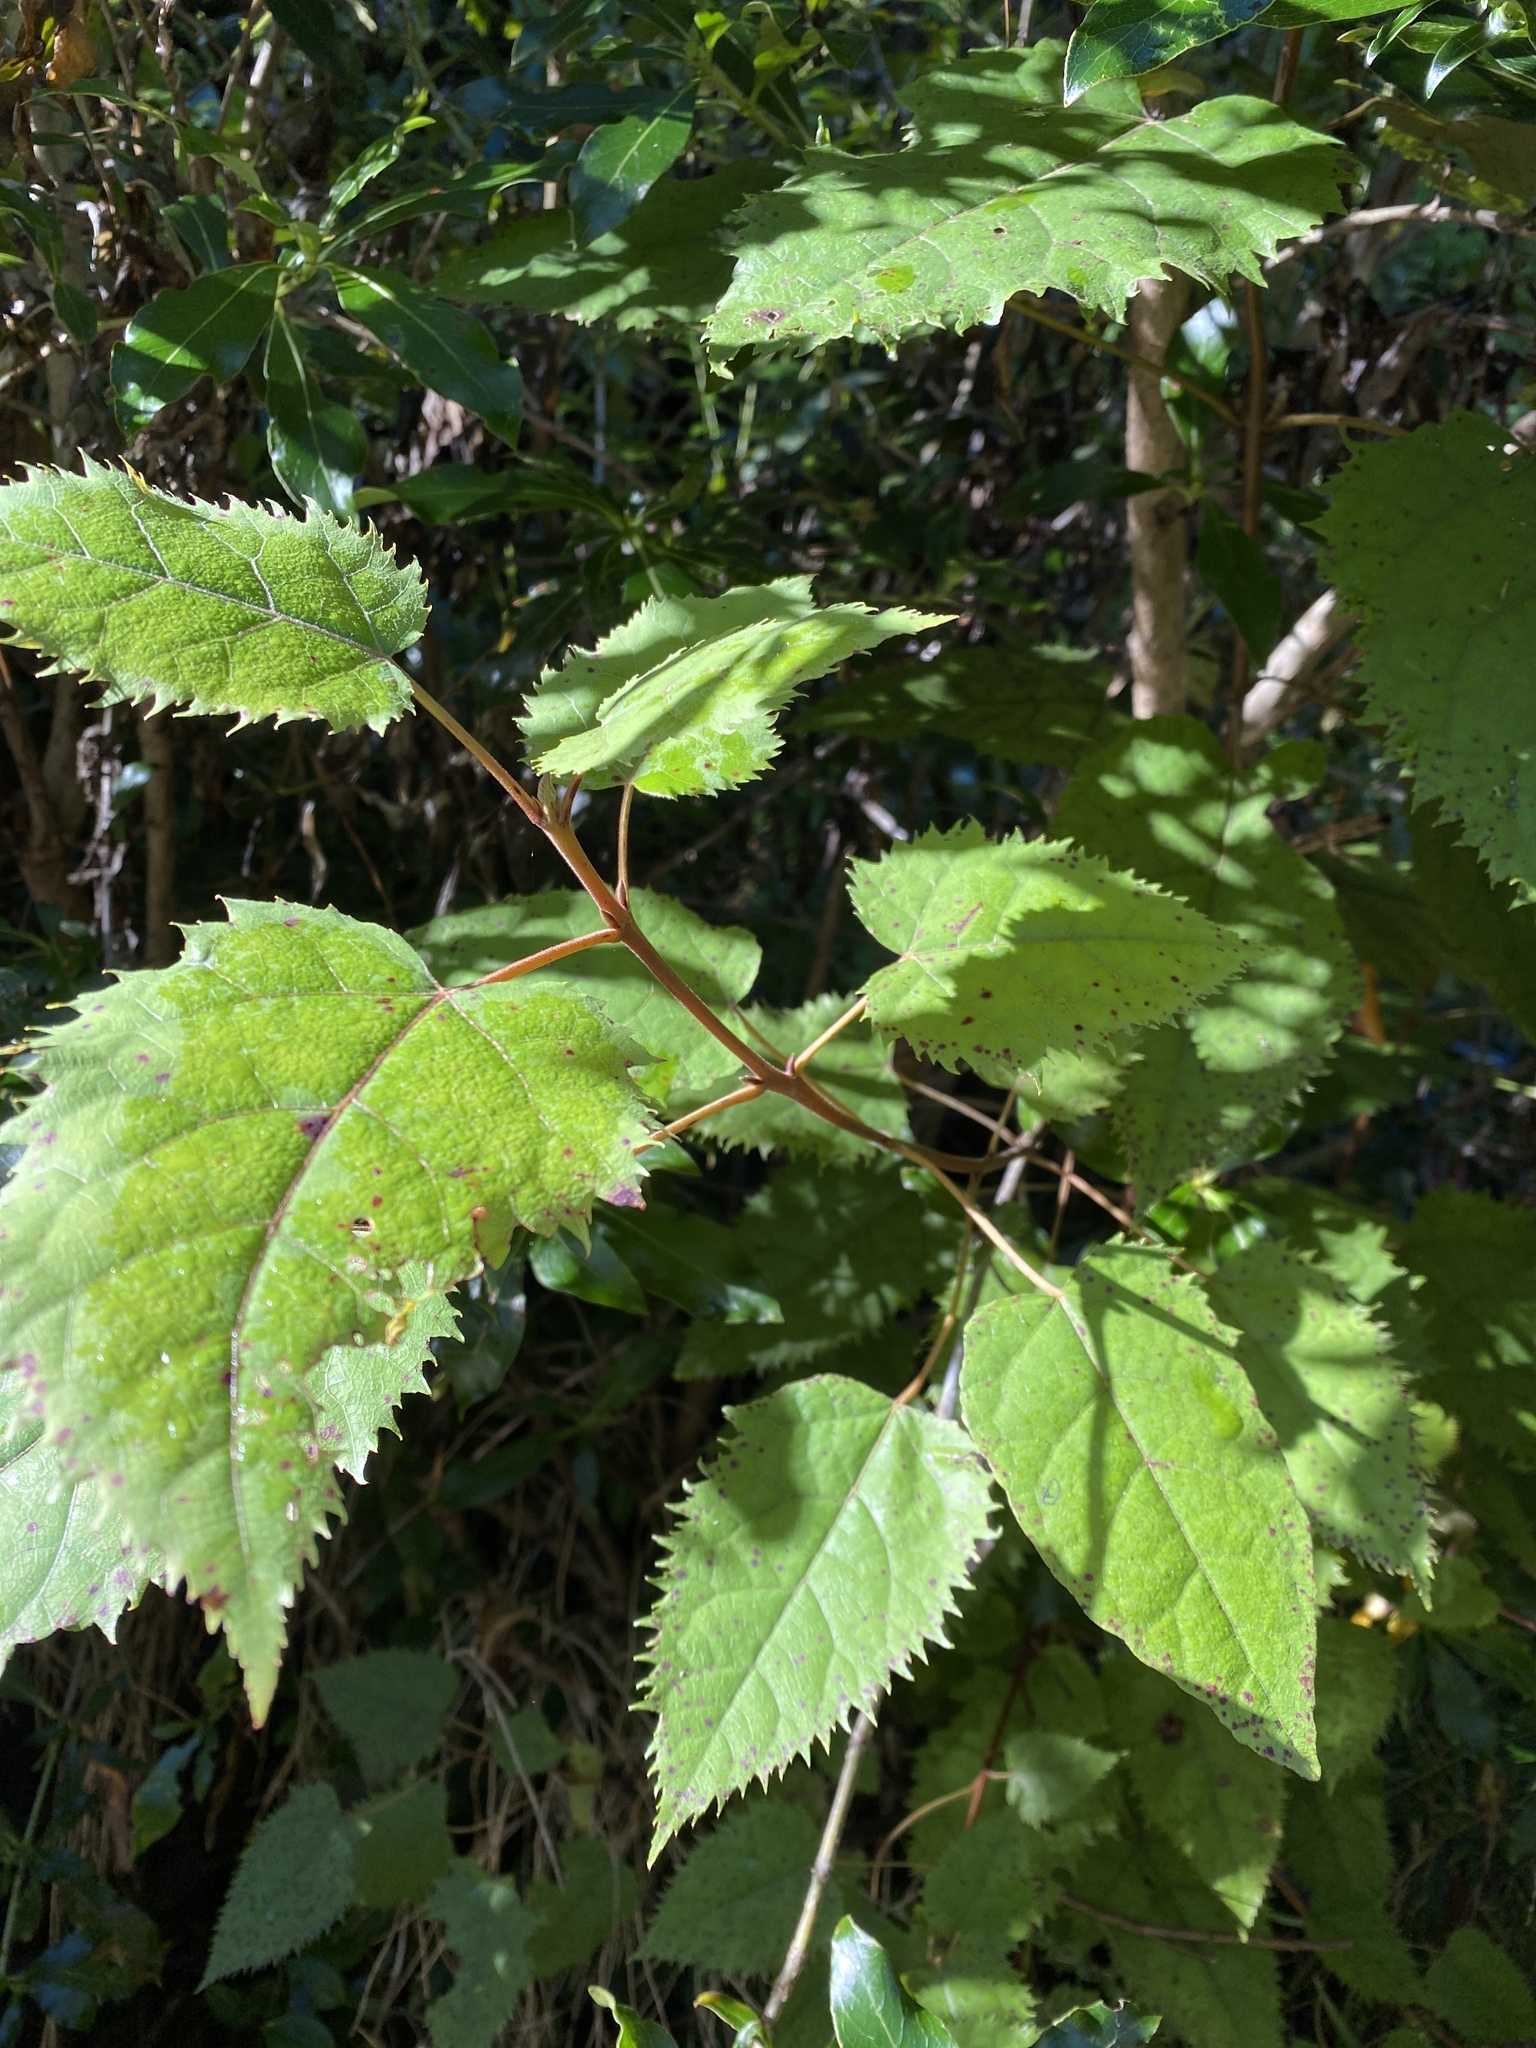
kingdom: Plantae
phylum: Tracheophyta
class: Magnoliopsida
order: Oxalidales
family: Elaeocarpaceae
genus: Aristotelia
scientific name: Aristotelia serrata
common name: New zealand wineberry
